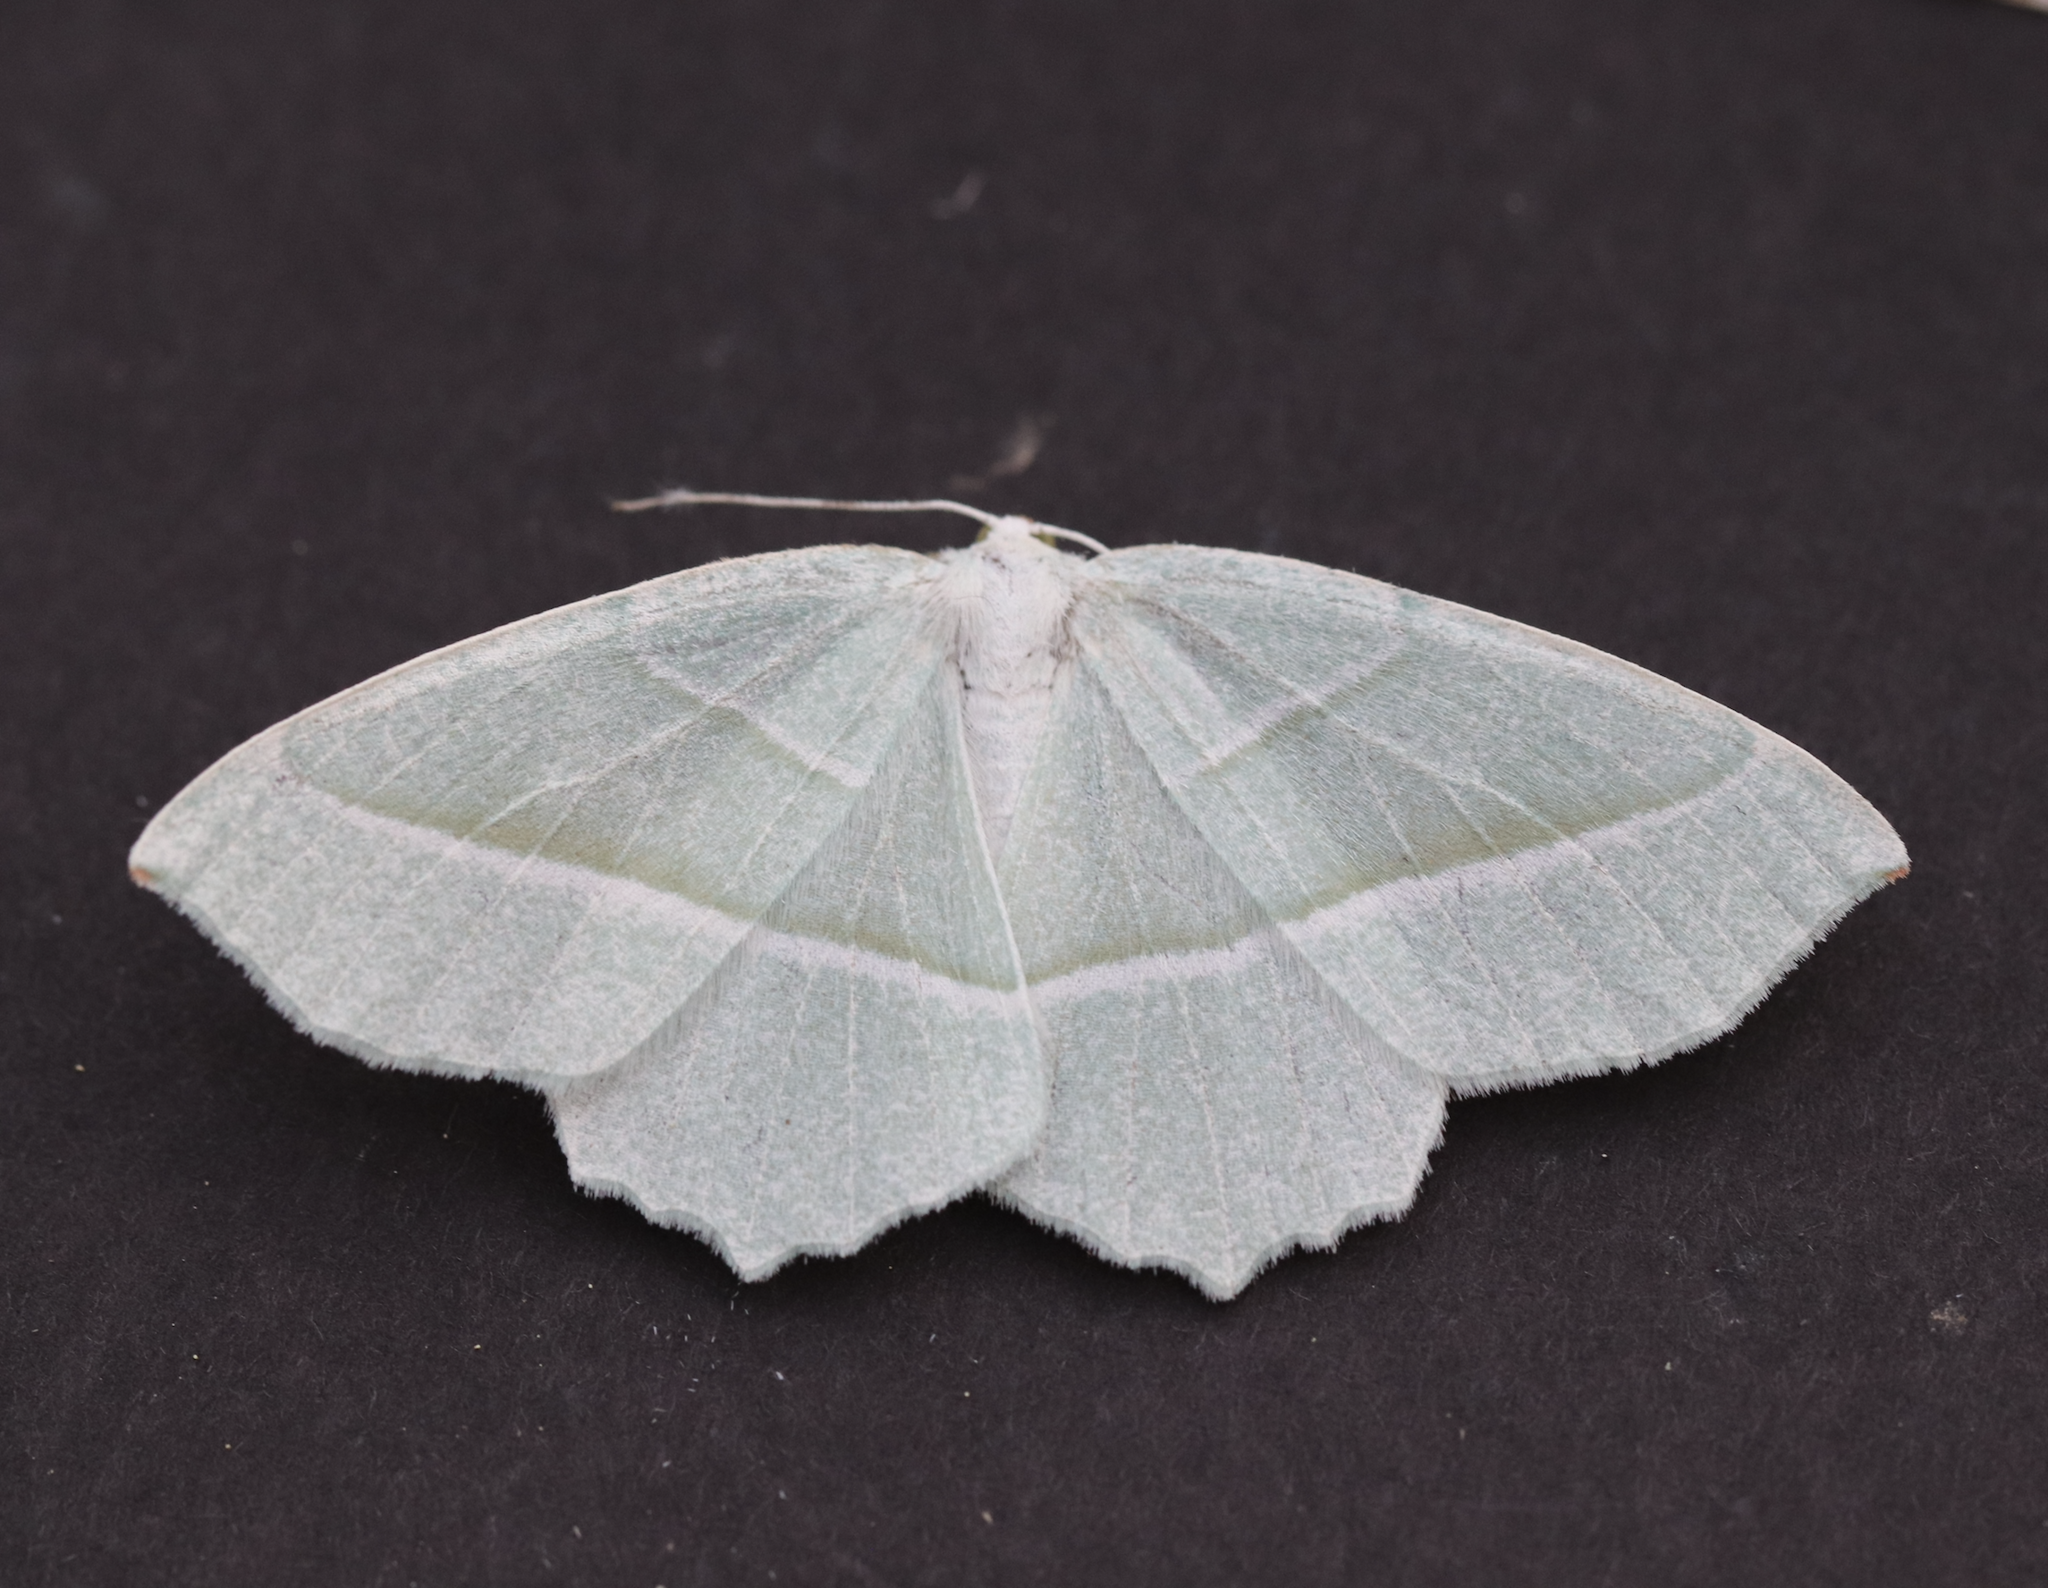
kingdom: Animalia
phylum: Arthropoda
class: Insecta
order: Lepidoptera
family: Geometridae
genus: Campaea
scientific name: Campaea margaritaria
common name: Light emerald
